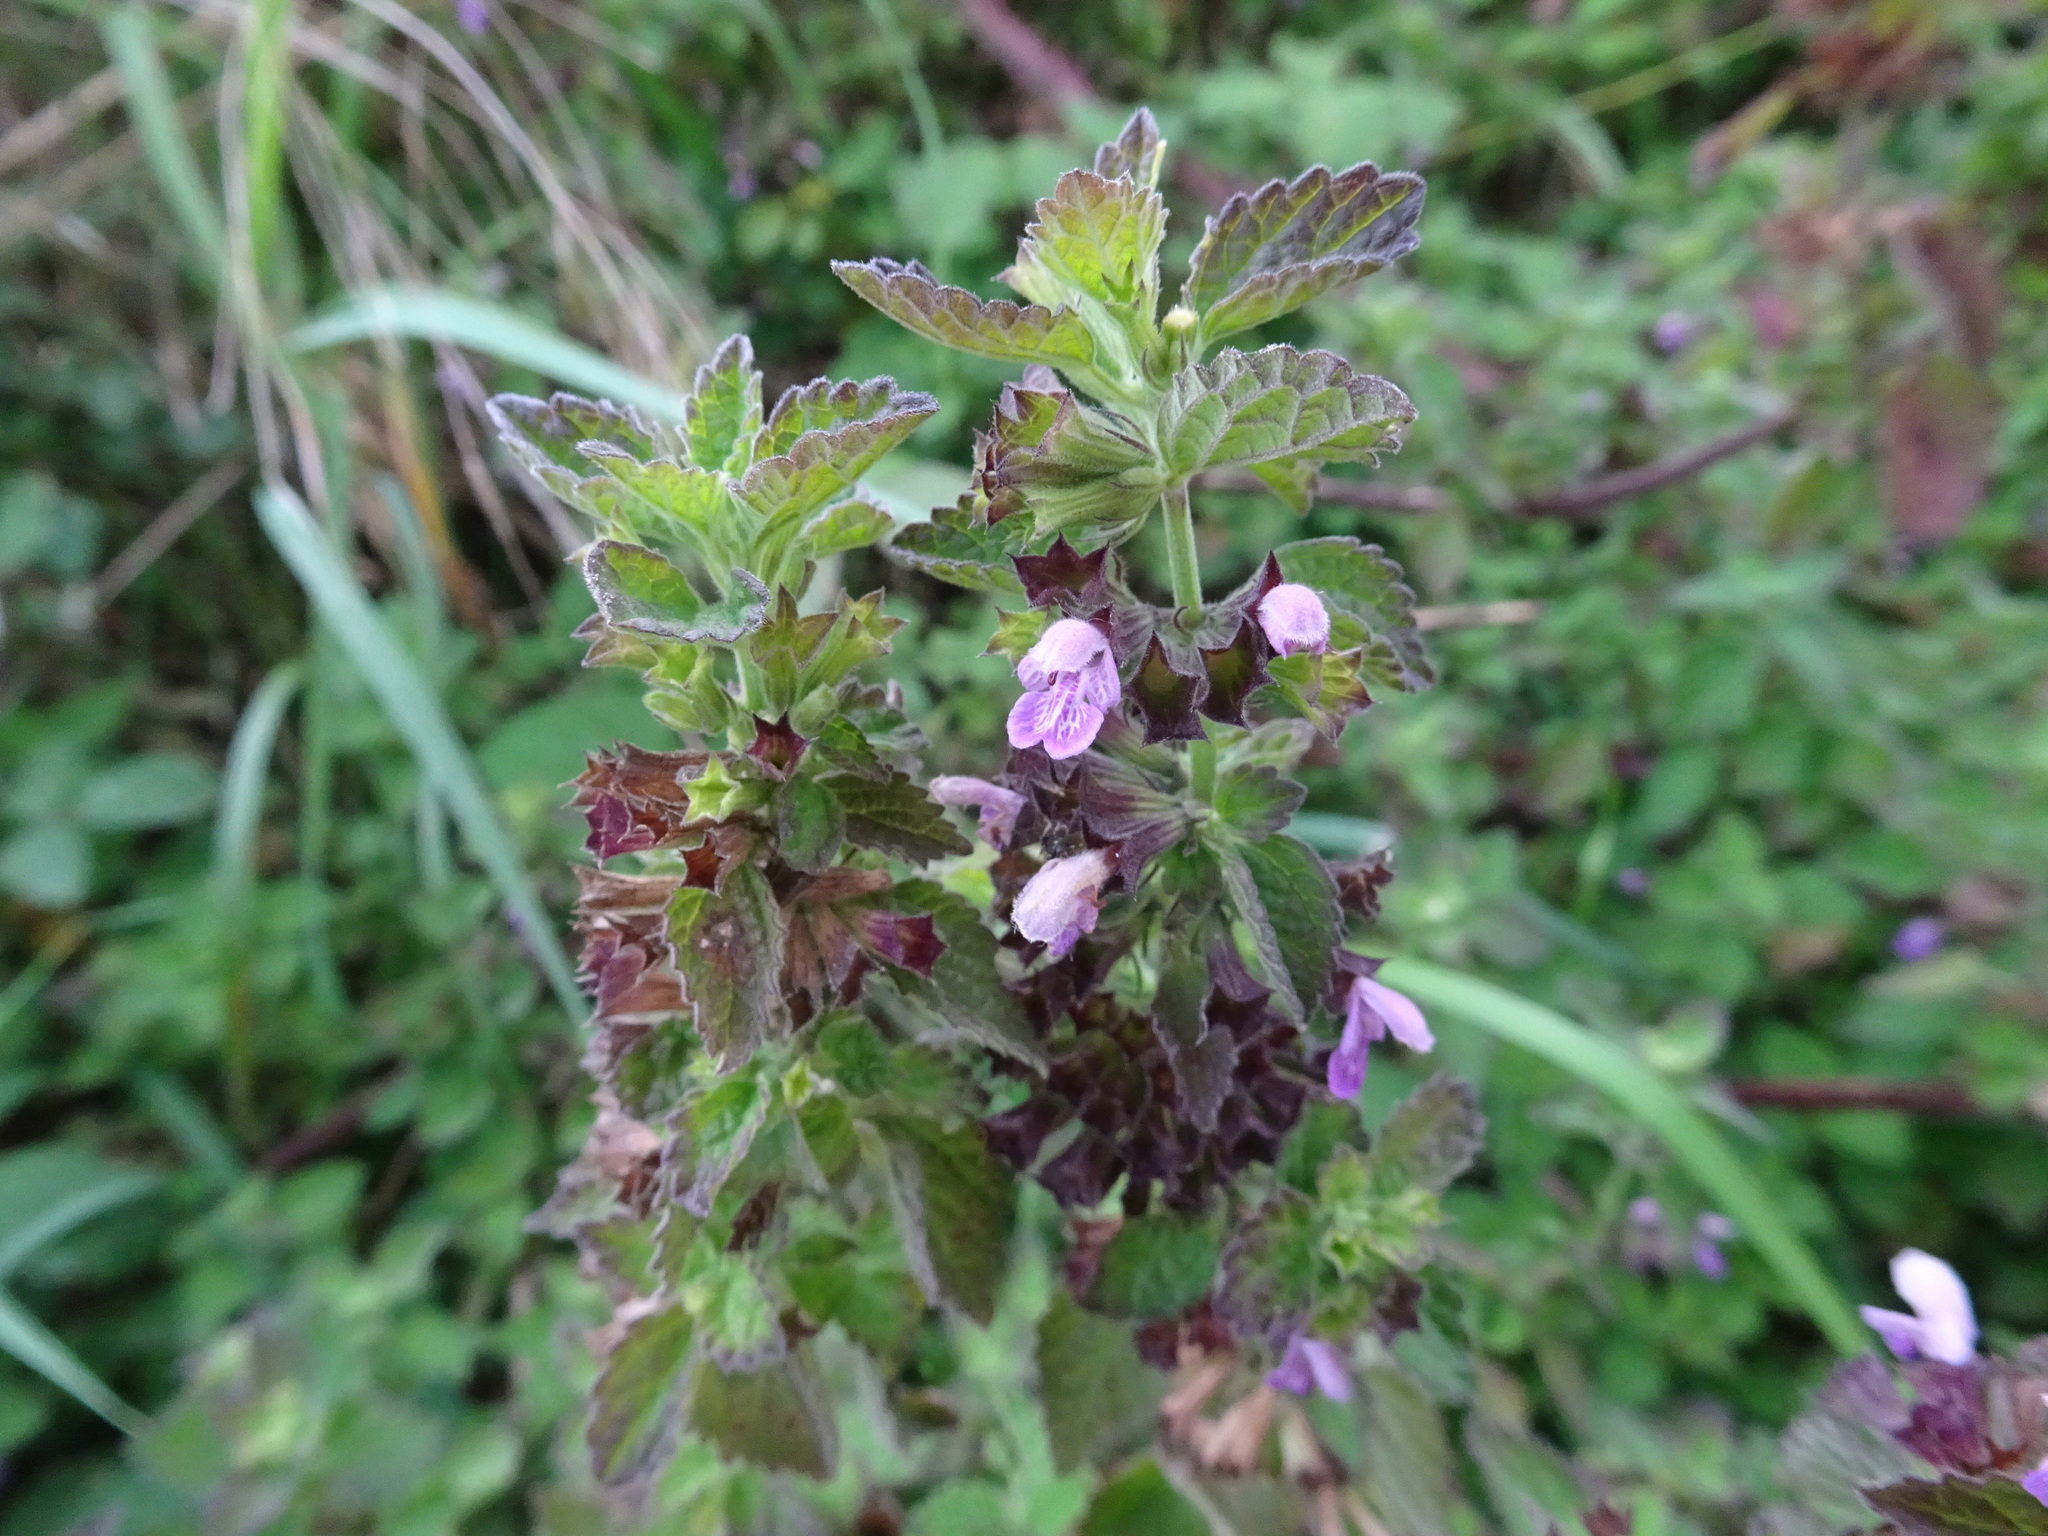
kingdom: Plantae
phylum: Tracheophyta
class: Magnoliopsida
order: Lamiales
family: Lamiaceae
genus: Ballota
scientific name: Ballota nigra
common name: Black horehound
